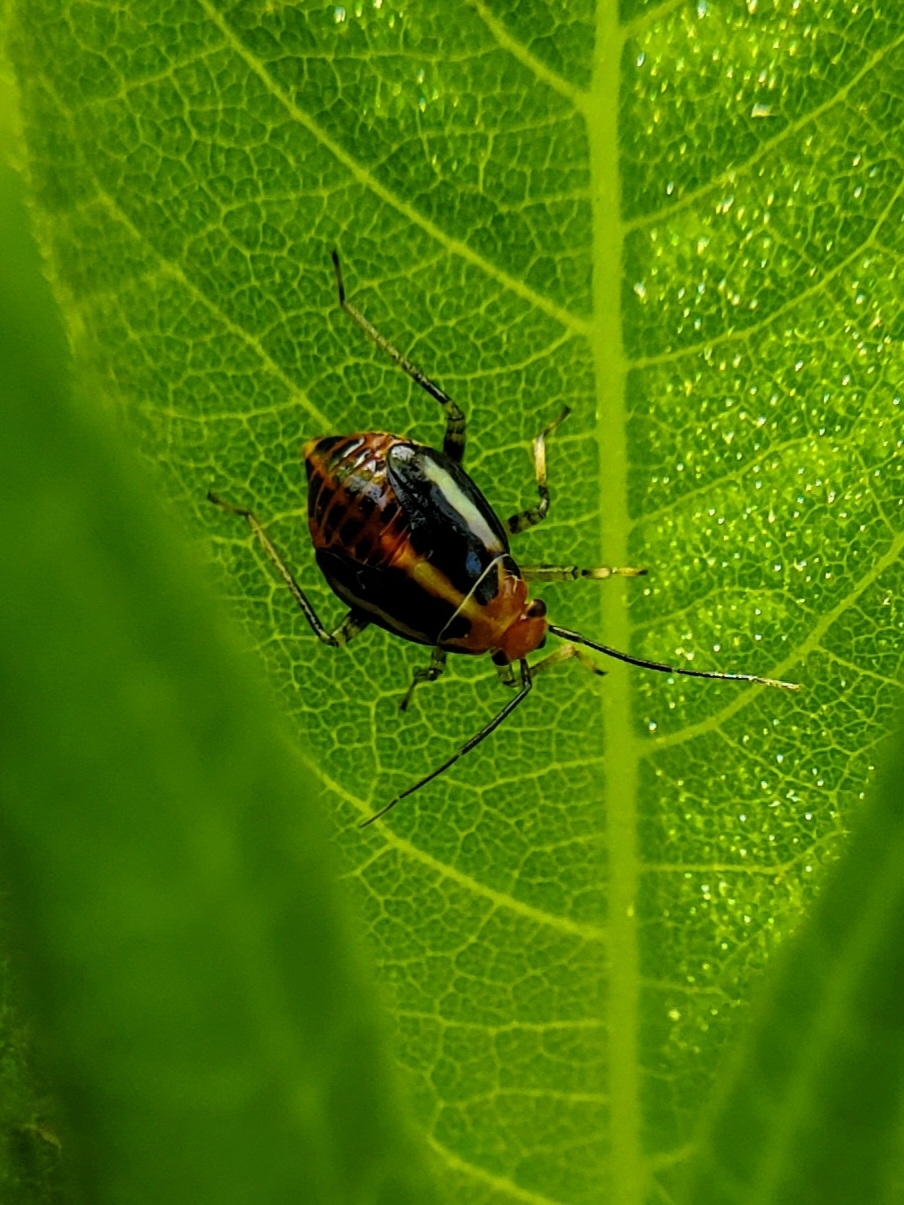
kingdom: Animalia
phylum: Arthropoda
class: Insecta
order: Hemiptera
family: Miridae
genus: Poecilocapsus
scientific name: Poecilocapsus lineatus
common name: Four-lined plant bug
